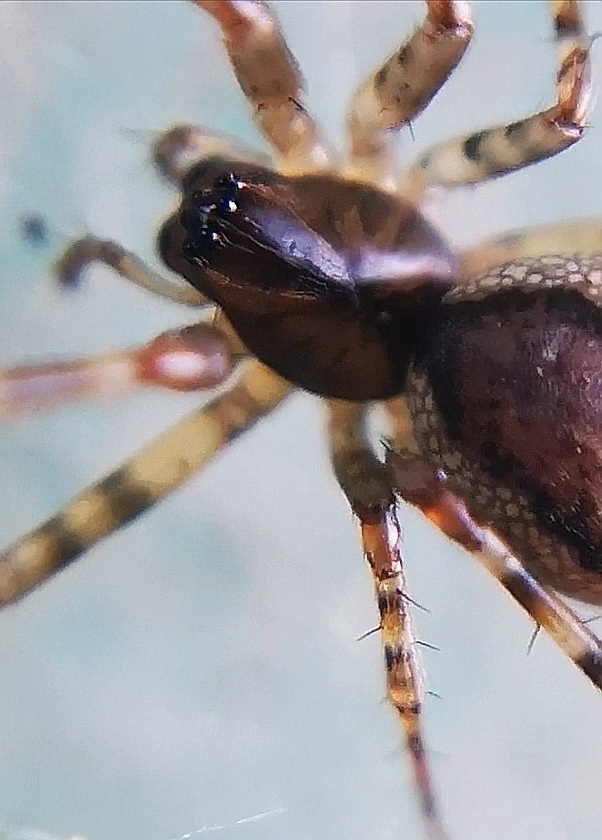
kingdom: Animalia
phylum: Arthropoda
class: Arachnida
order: Araneae
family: Linyphiidae
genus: Neriene
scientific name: Neriene montana
